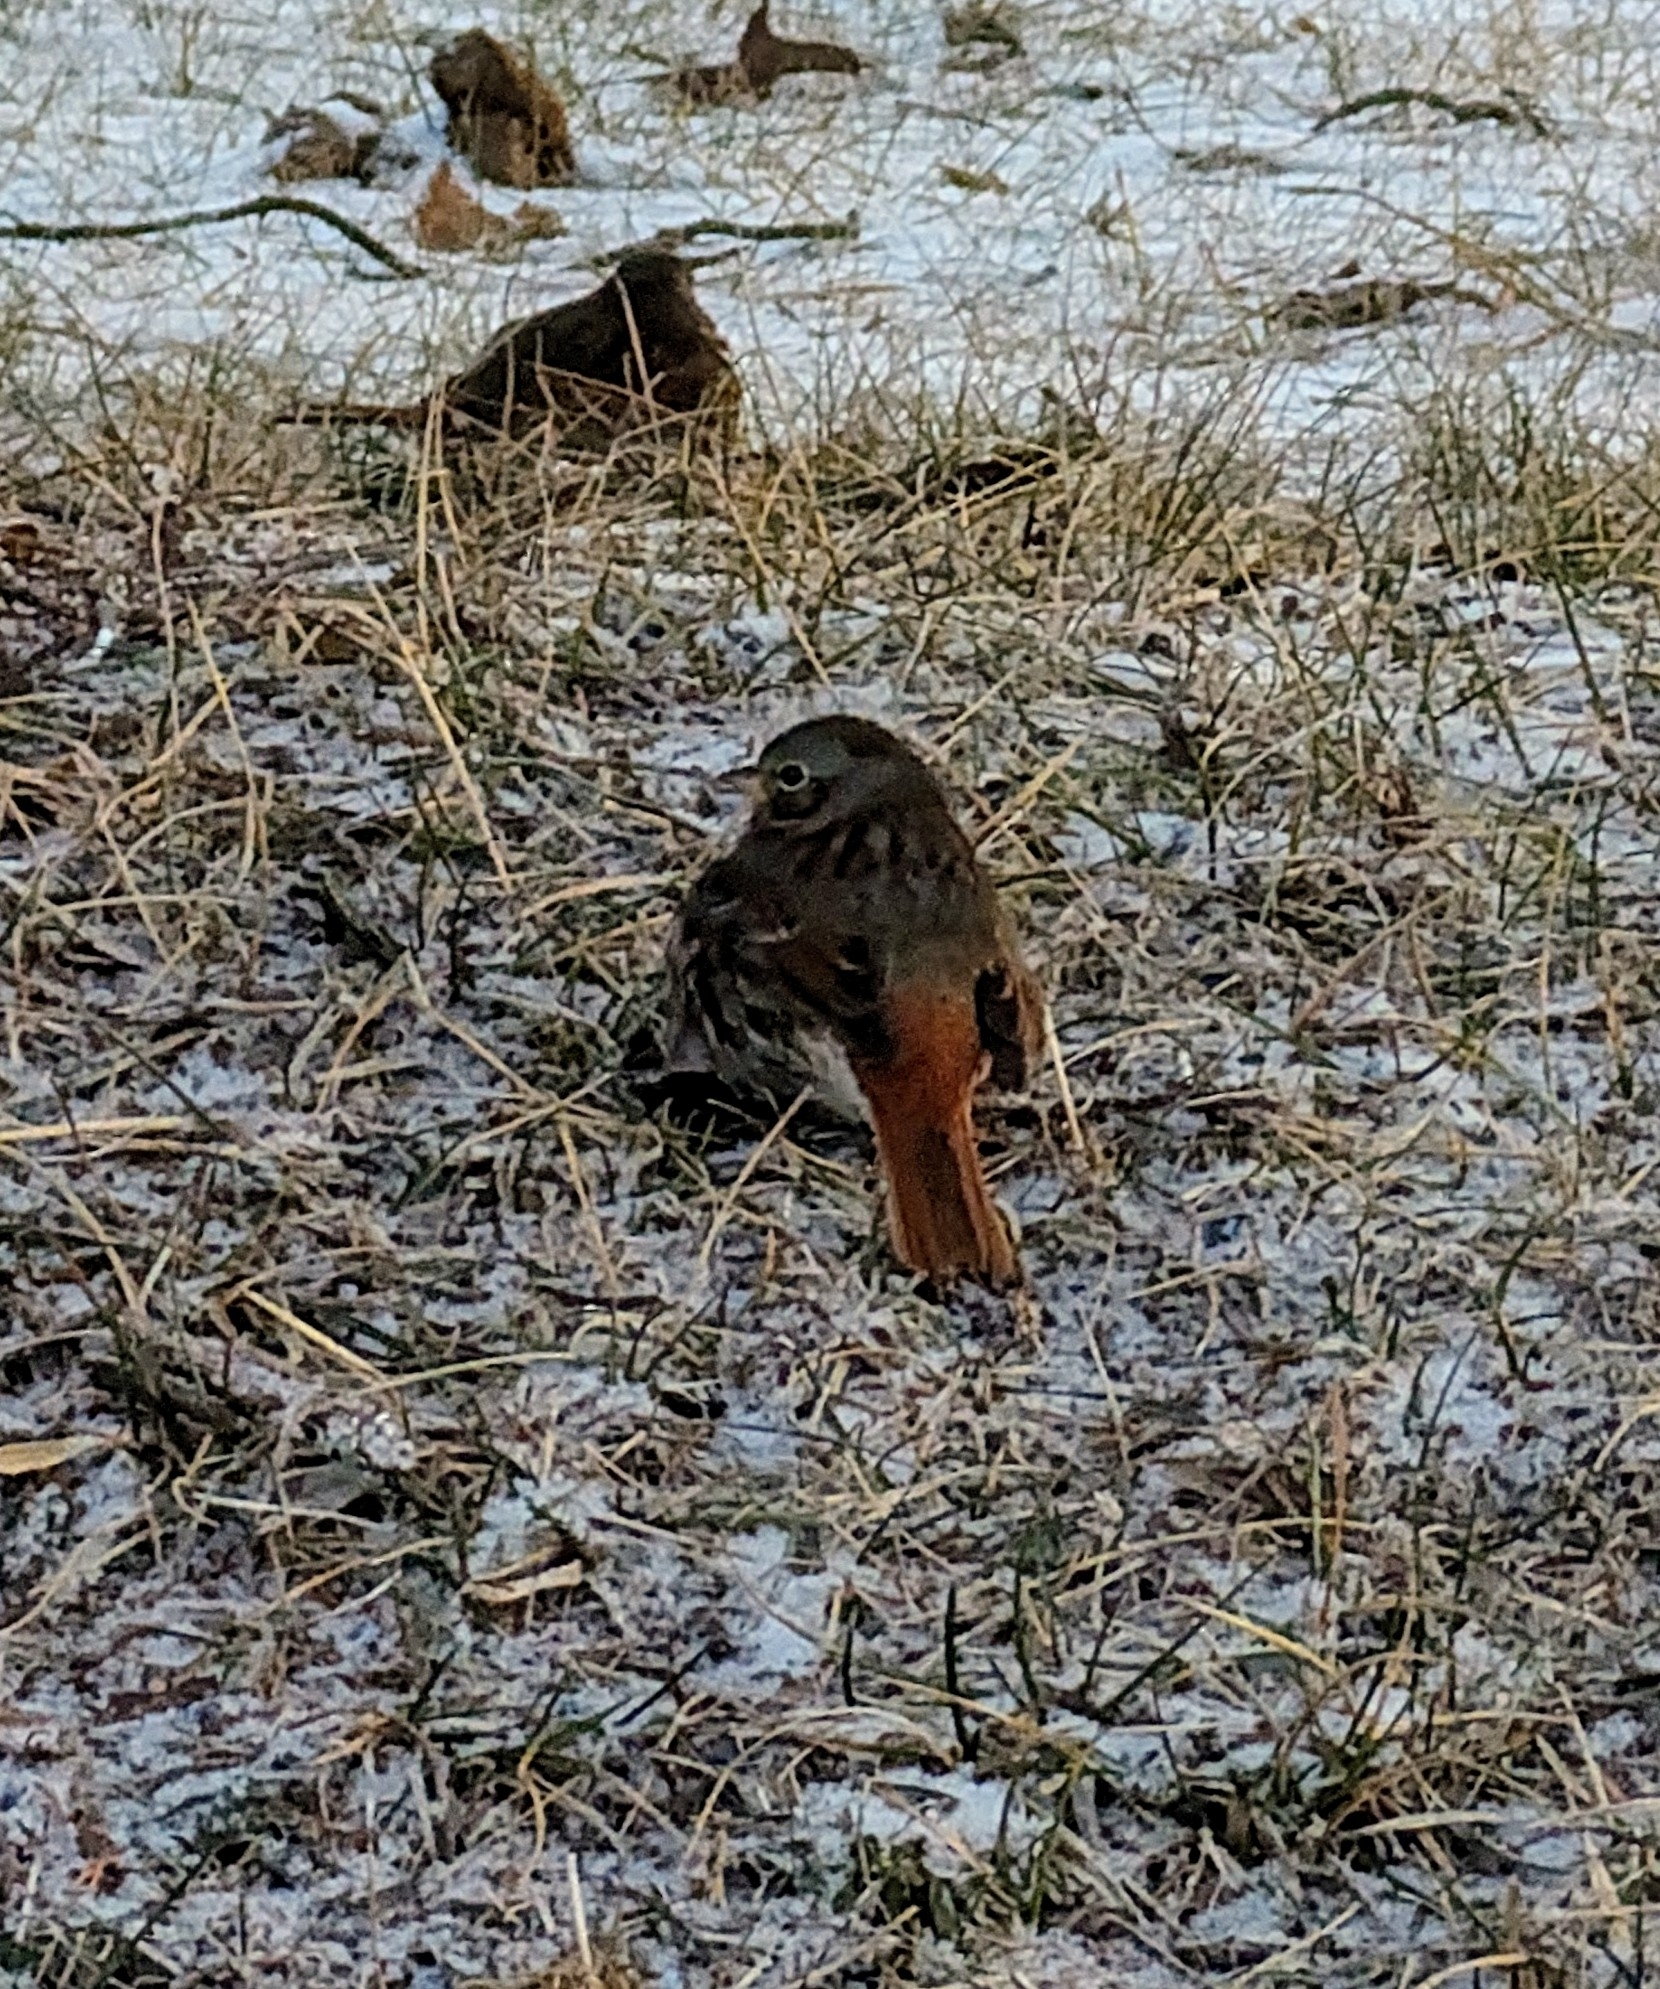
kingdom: Animalia
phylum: Chordata
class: Aves
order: Passeriformes
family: Passerellidae
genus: Passerella
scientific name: Passerella iliaca
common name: Fox sparrow
